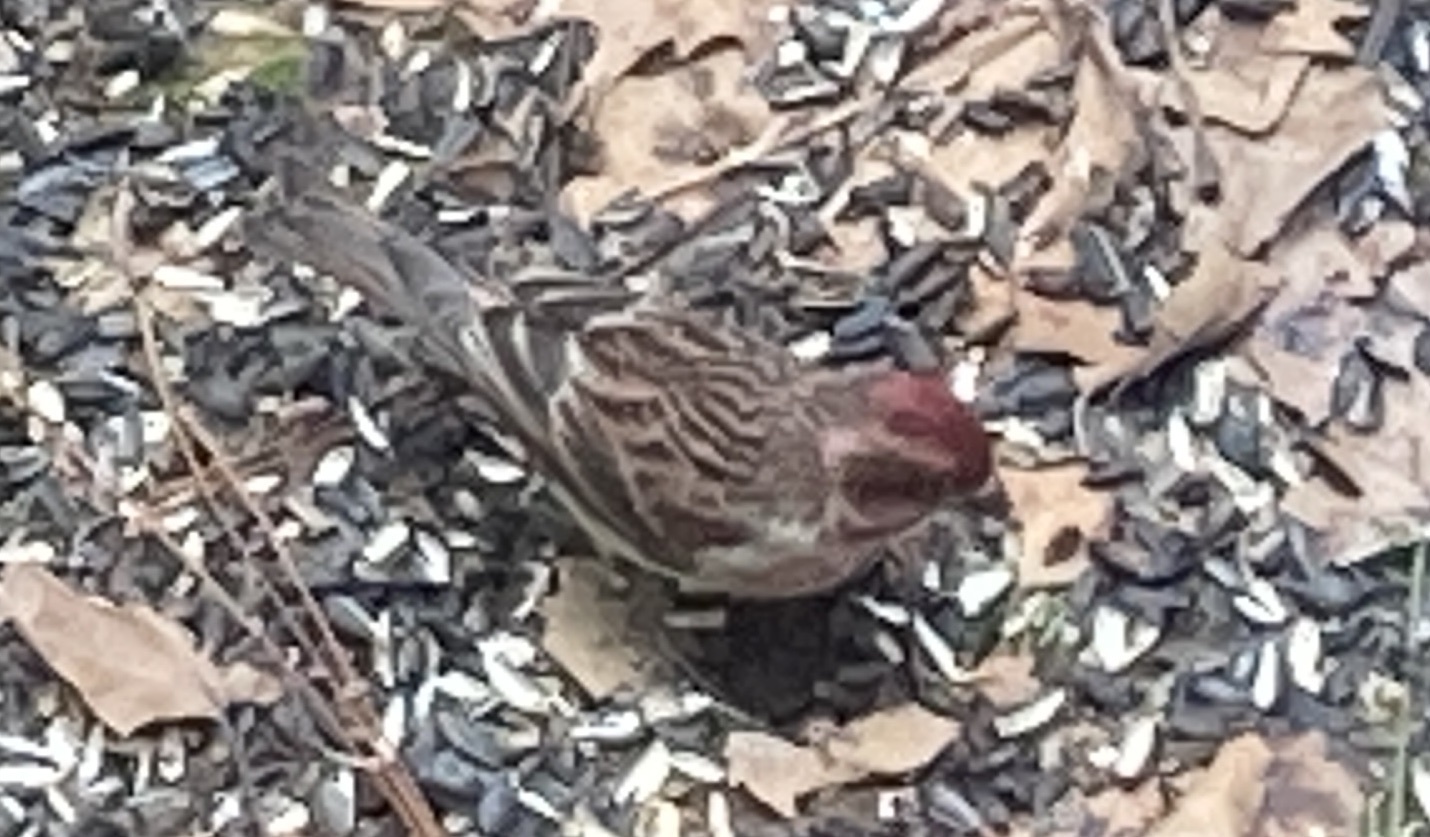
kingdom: Animalia
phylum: Chordata
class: Aves
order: Passeriformes
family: Fringillidae
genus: Haemorhous
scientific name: Haemorhous cassinii
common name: Cassin's finch
